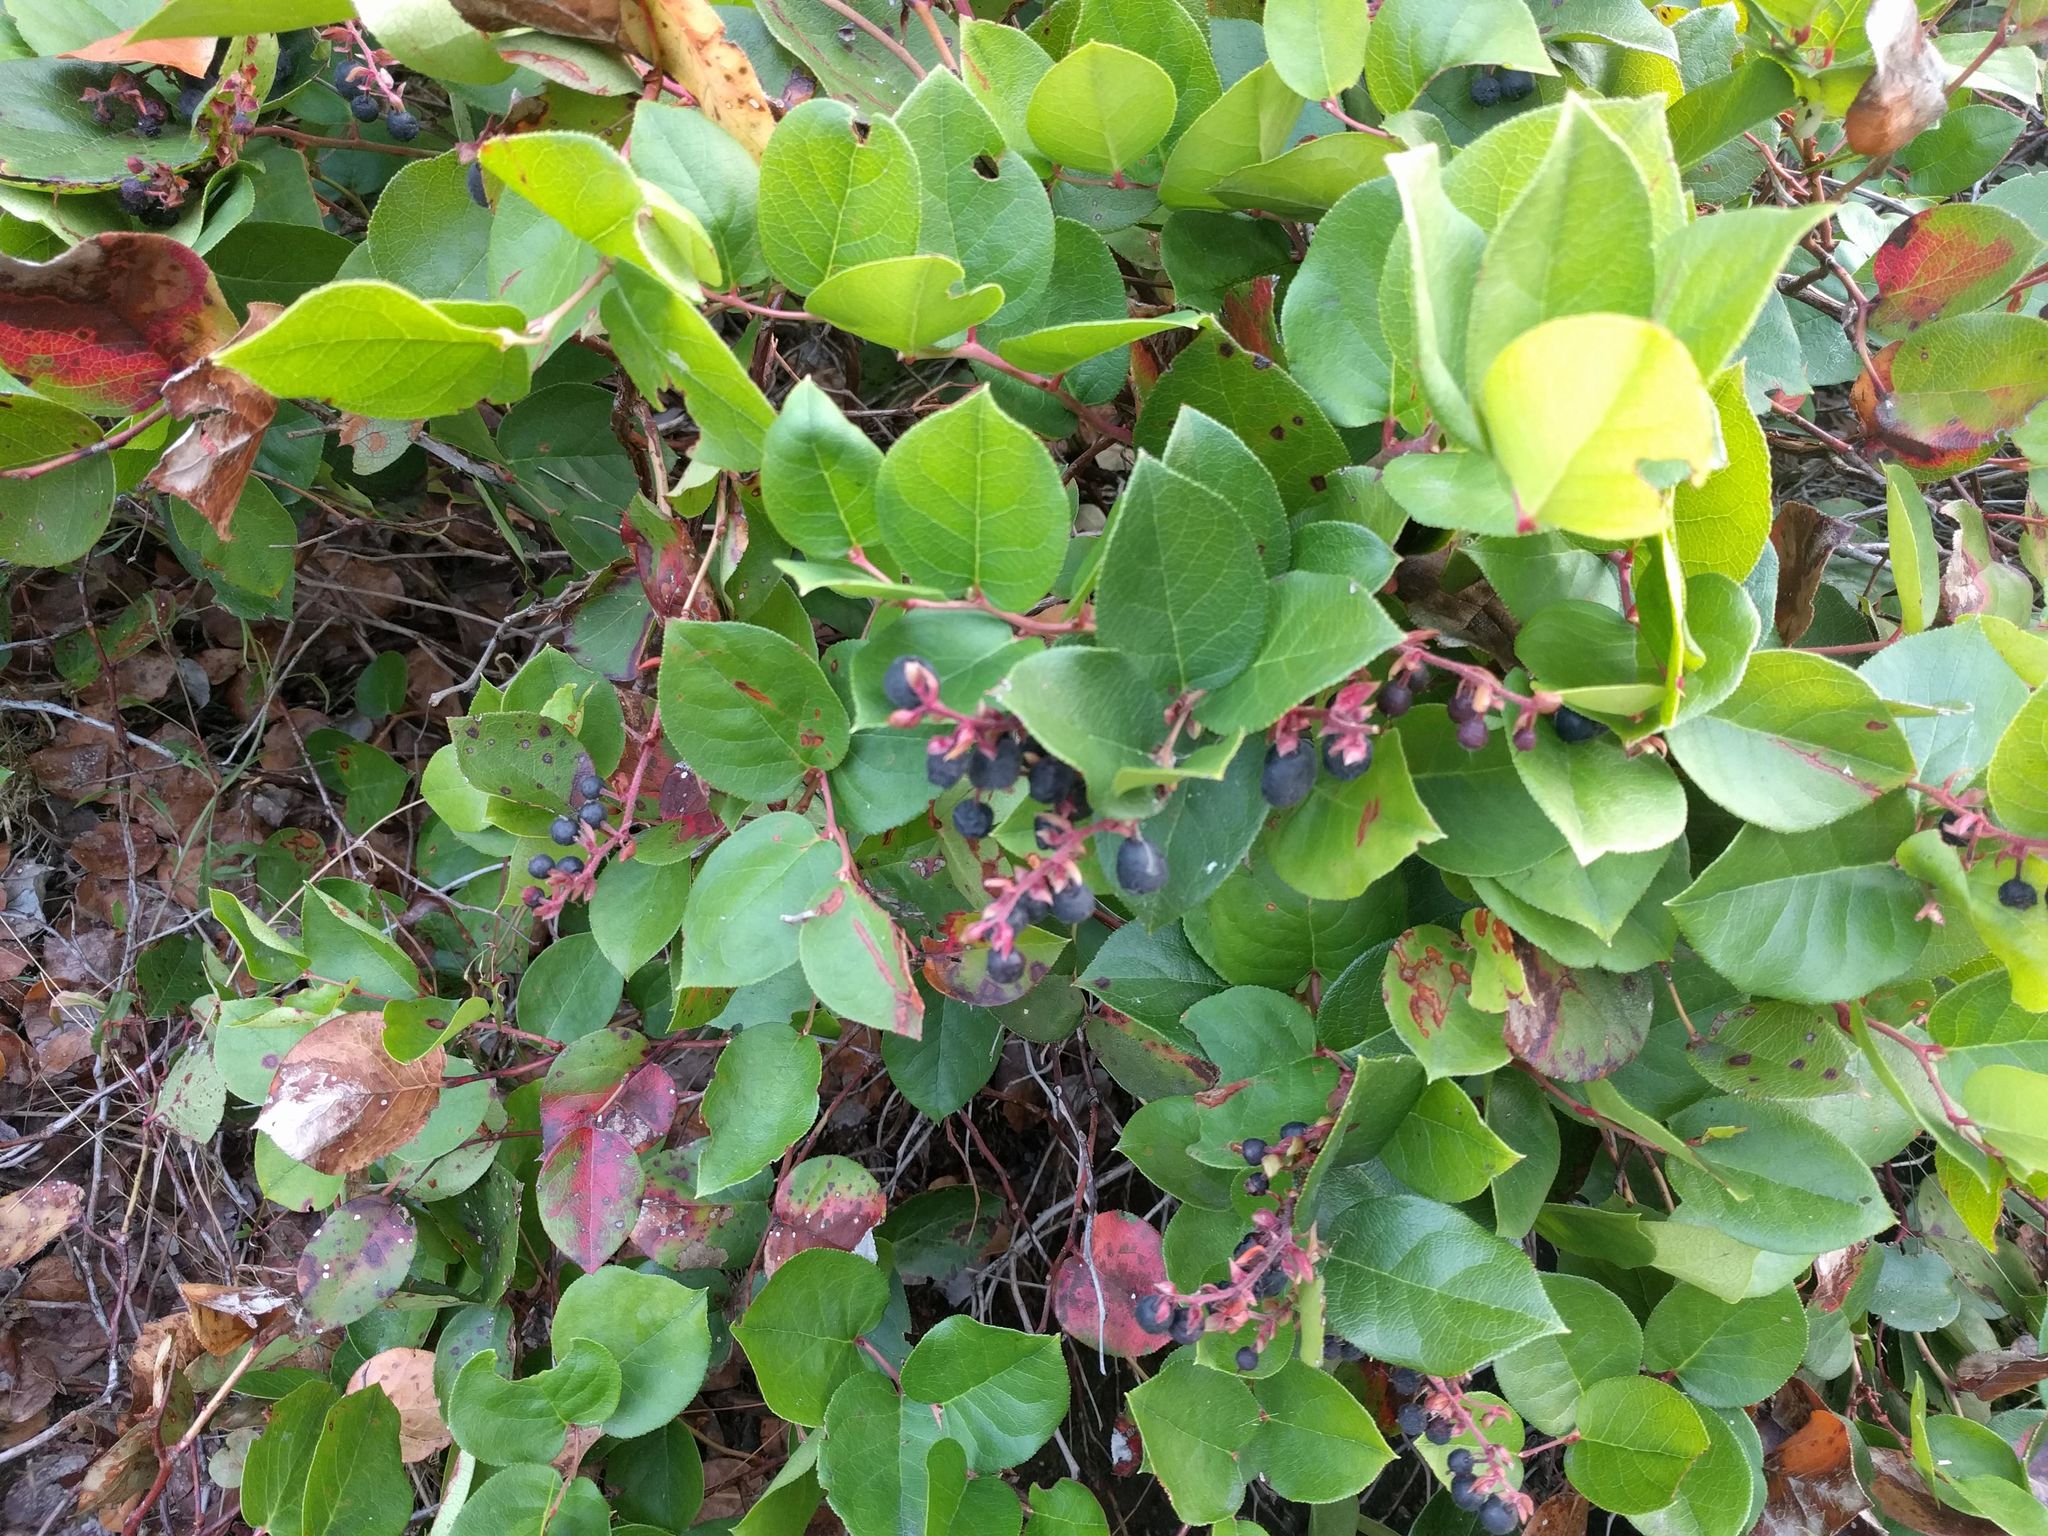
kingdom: Plantae
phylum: Tracheophyta
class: Magnoliopsida
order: Ericales
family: Ericaceae
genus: Gaultheria
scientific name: Gaultheria shallon
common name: Shallon
